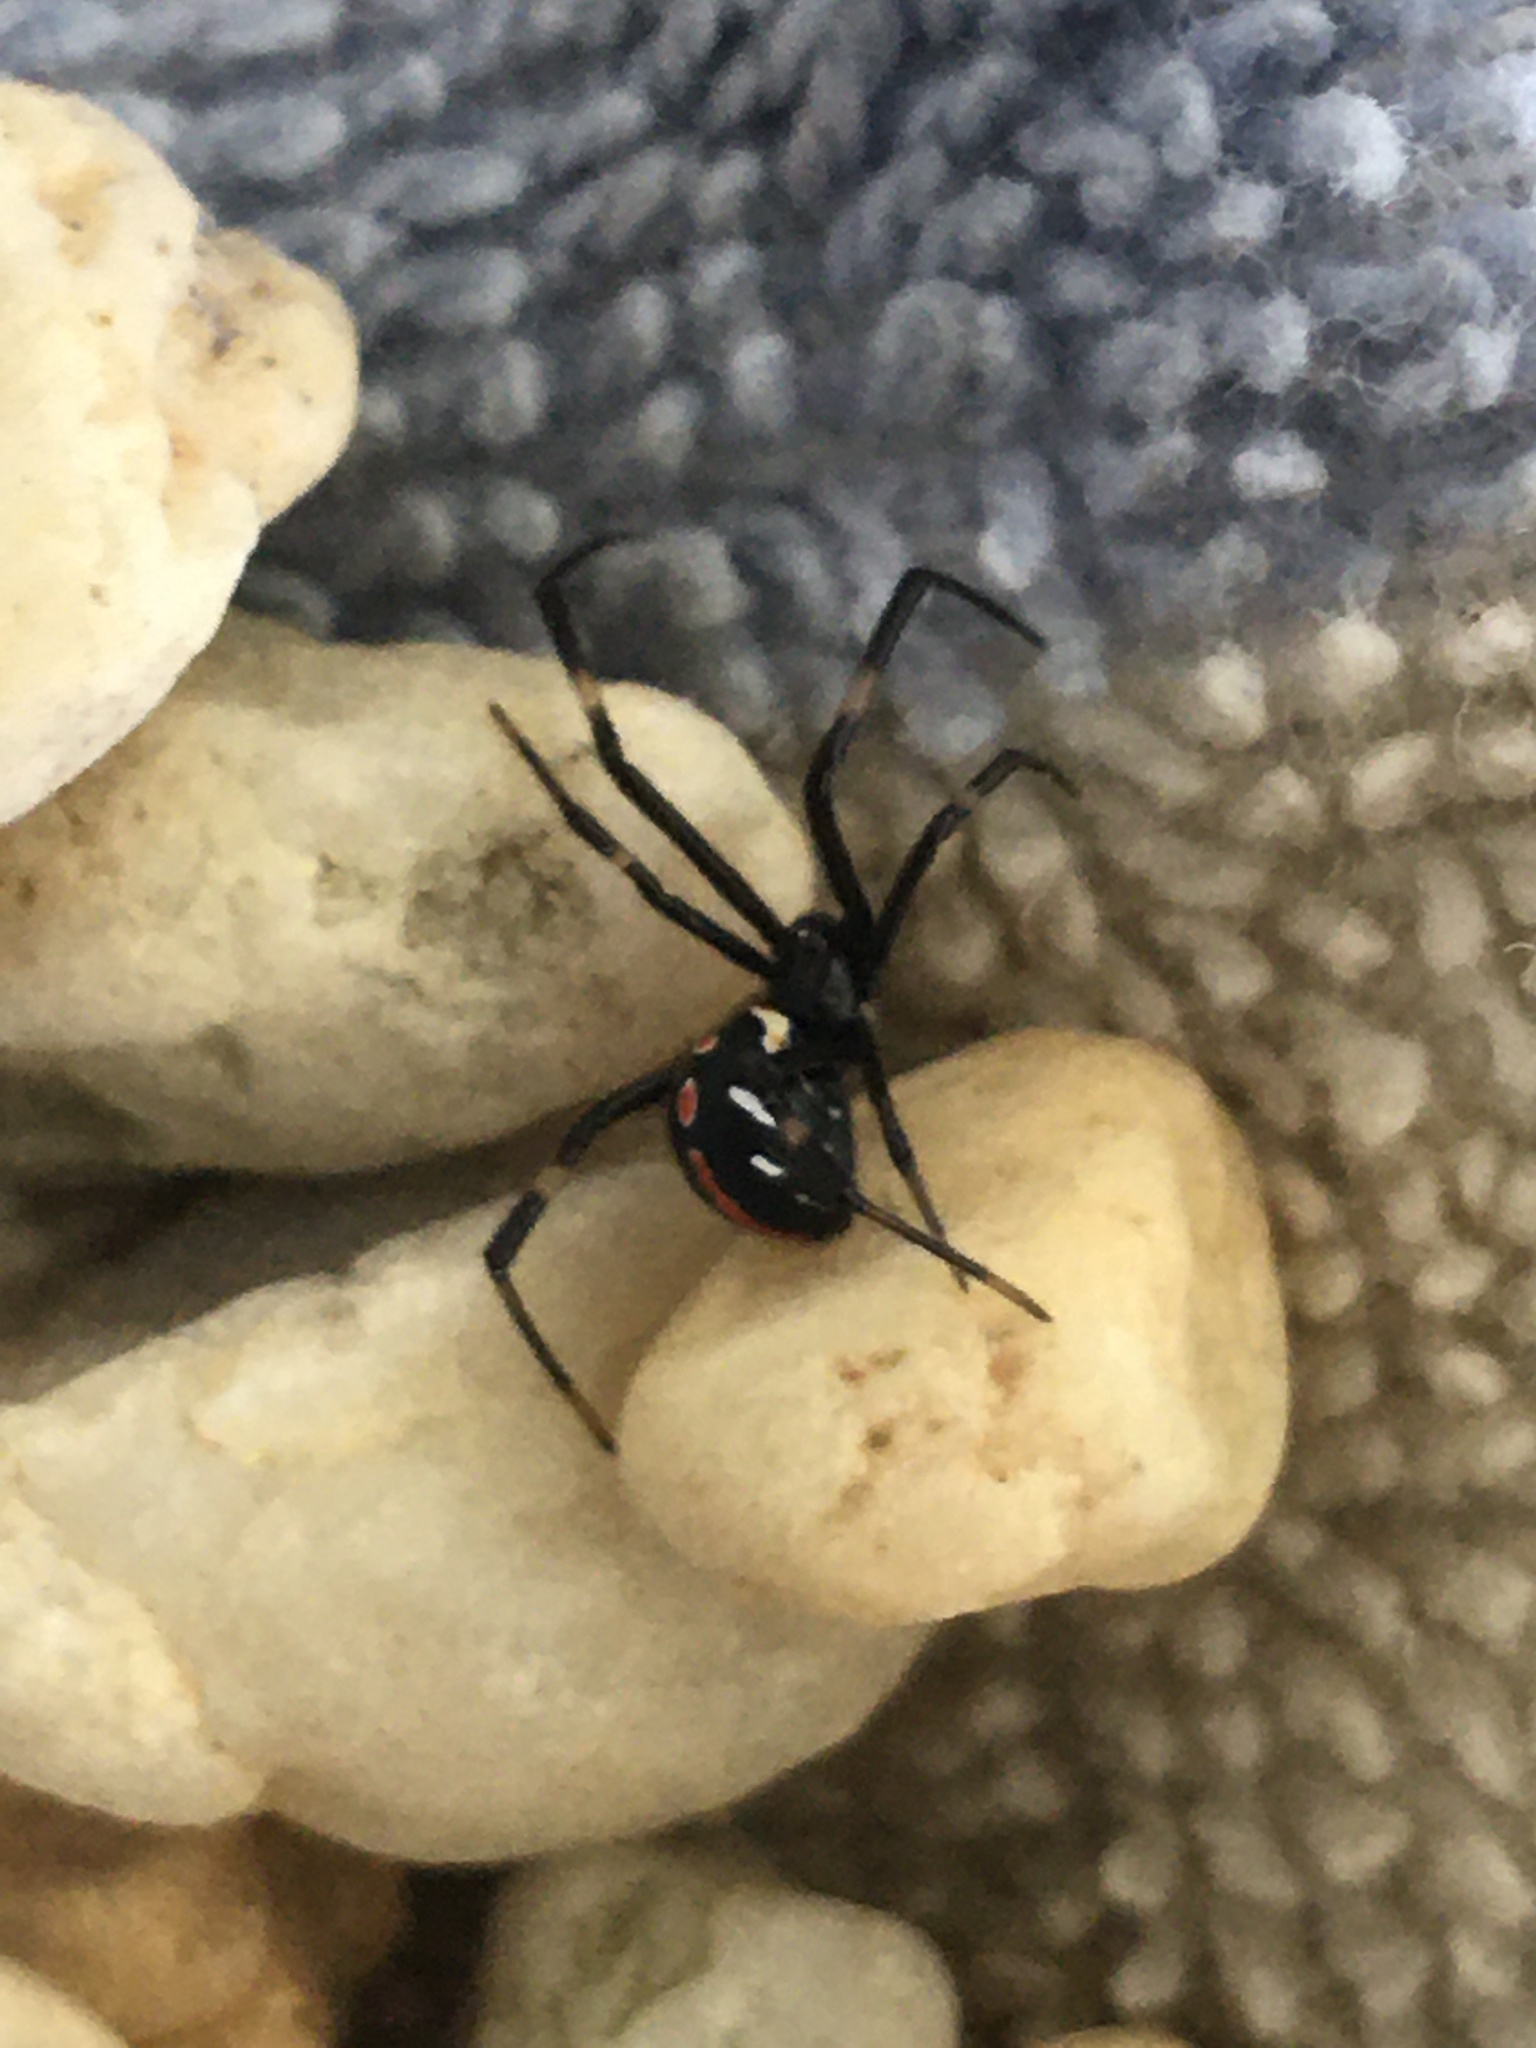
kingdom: Animalia
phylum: Arthropoda
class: Arachnida
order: Araneae
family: Theridiidae
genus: Latrodectus
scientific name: Latrodectus mactans
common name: Cobweb spiders
